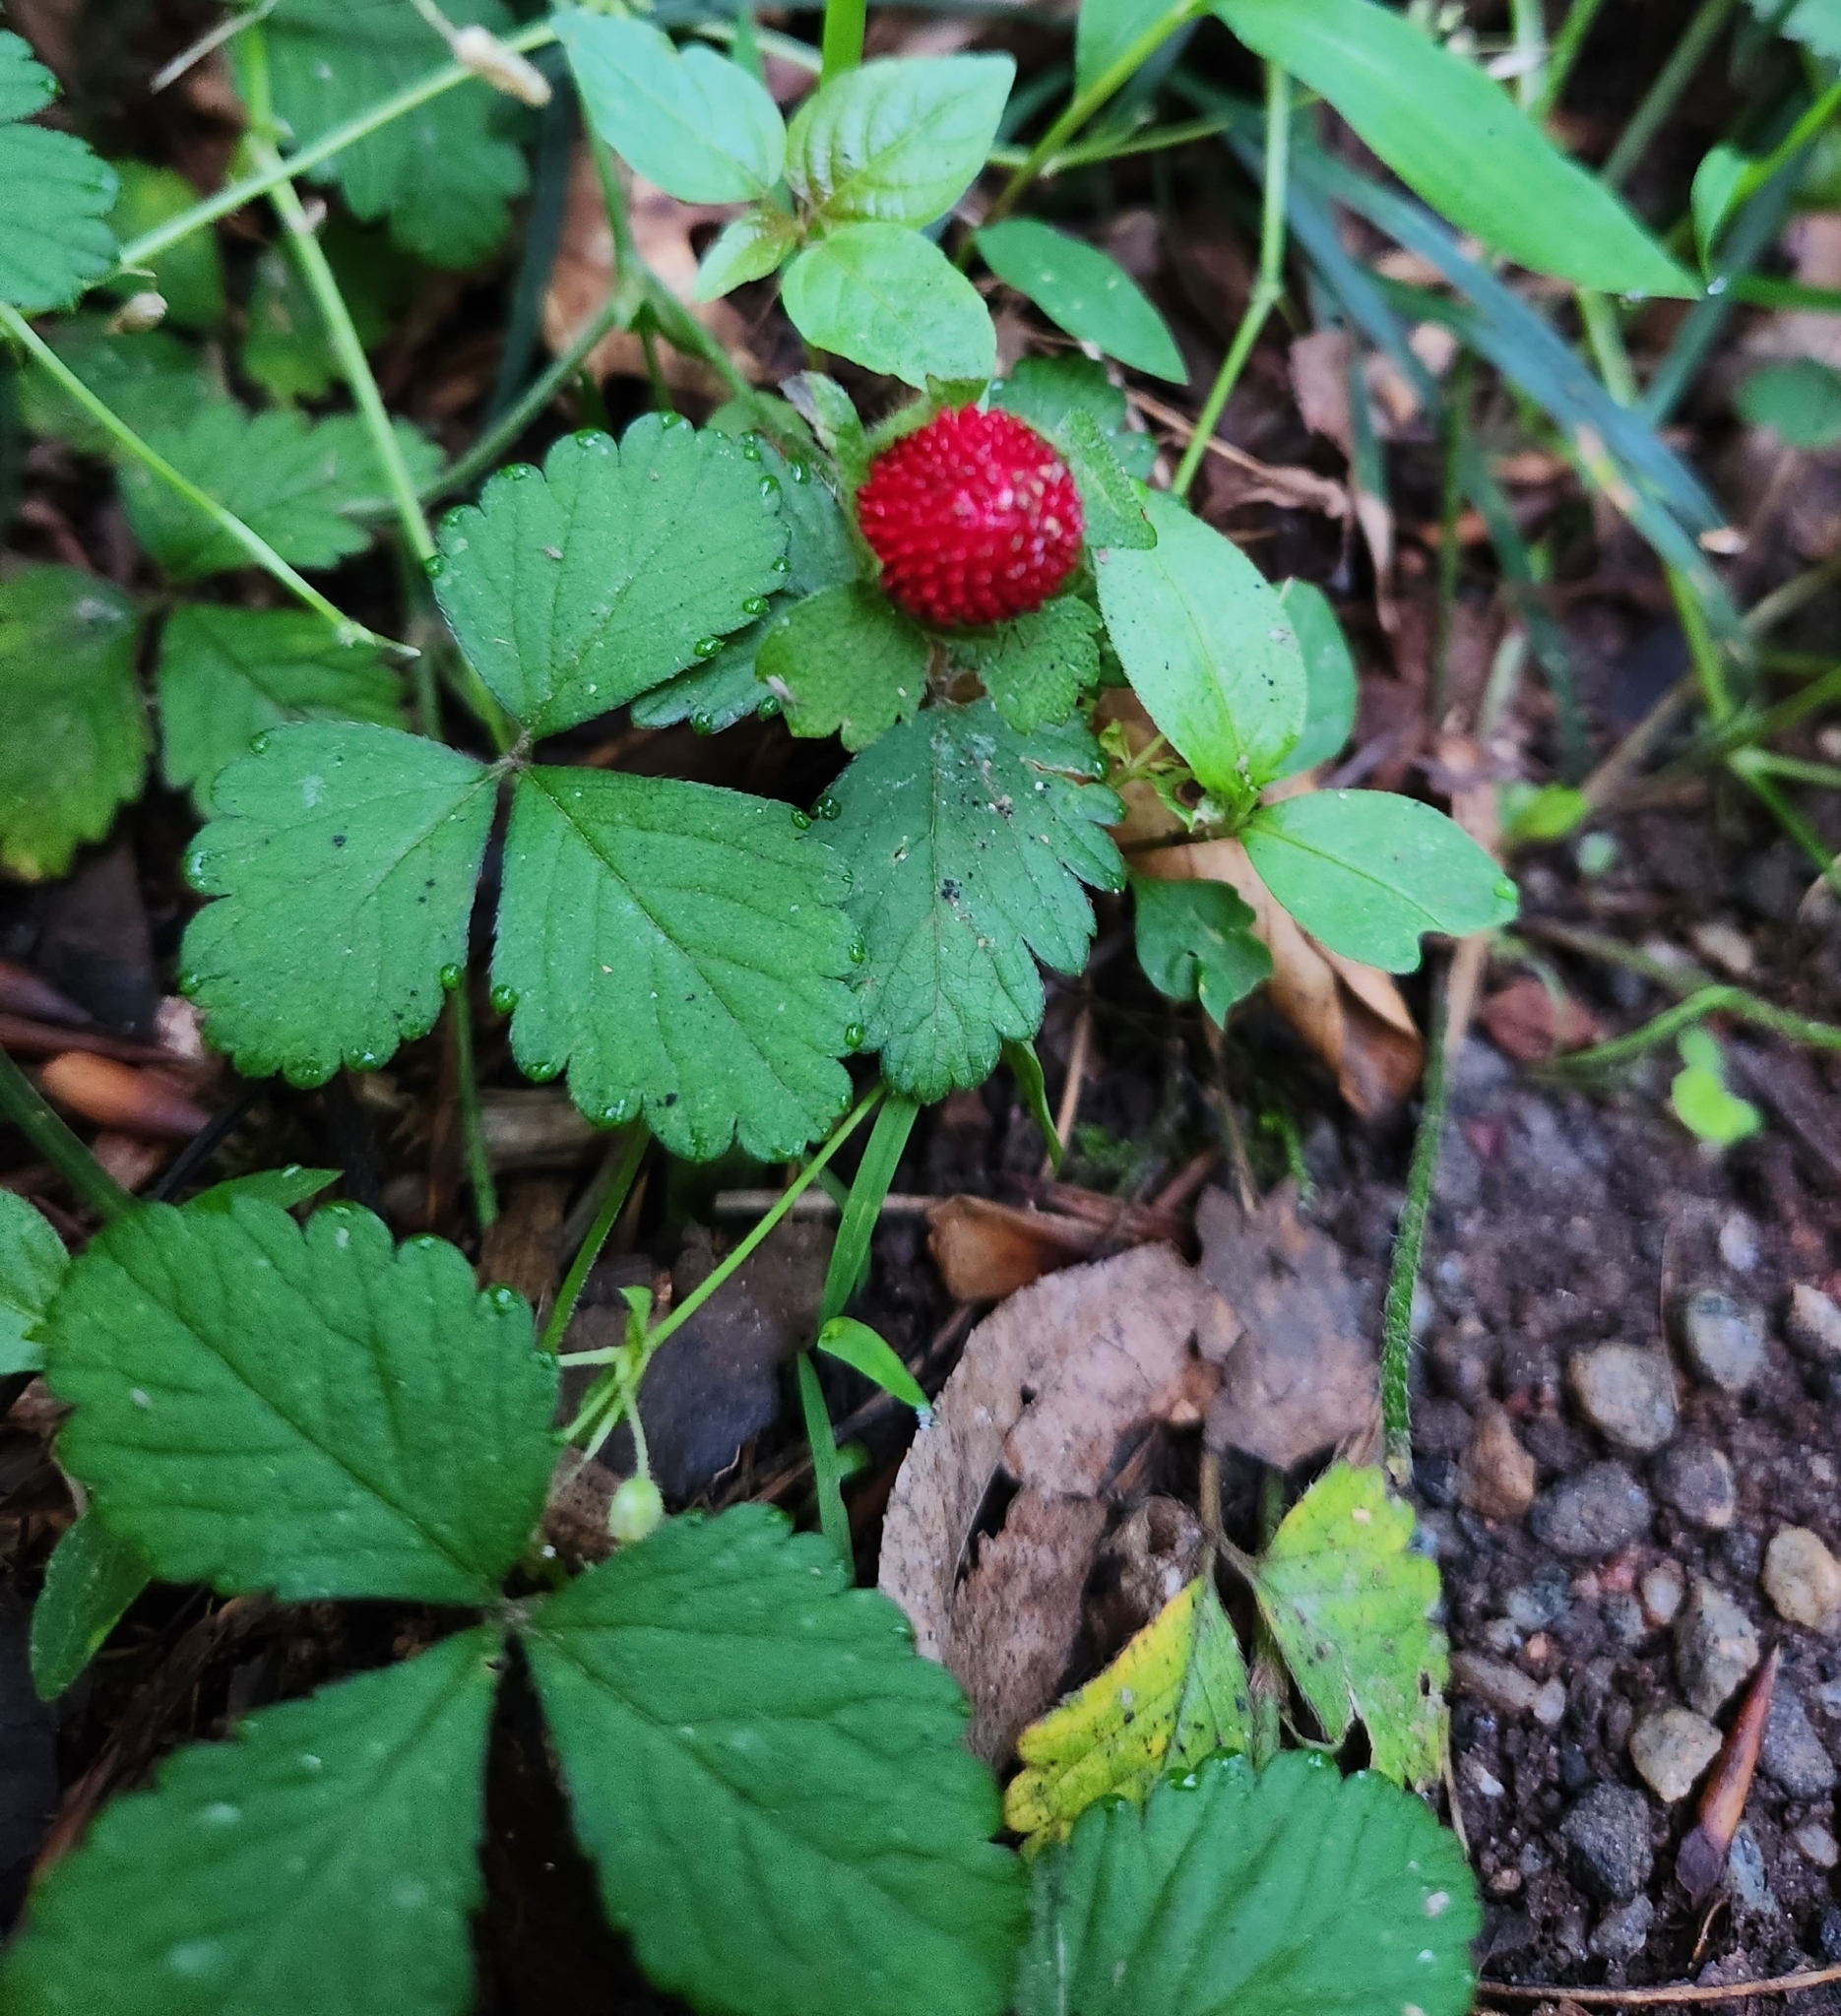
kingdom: Plantae
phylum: Tracheophyta
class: Magnoliopsida
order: Rosales
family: Rosaceae
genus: Potentilla
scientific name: Potentilla indica
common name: Yellow-flowered strawberry
